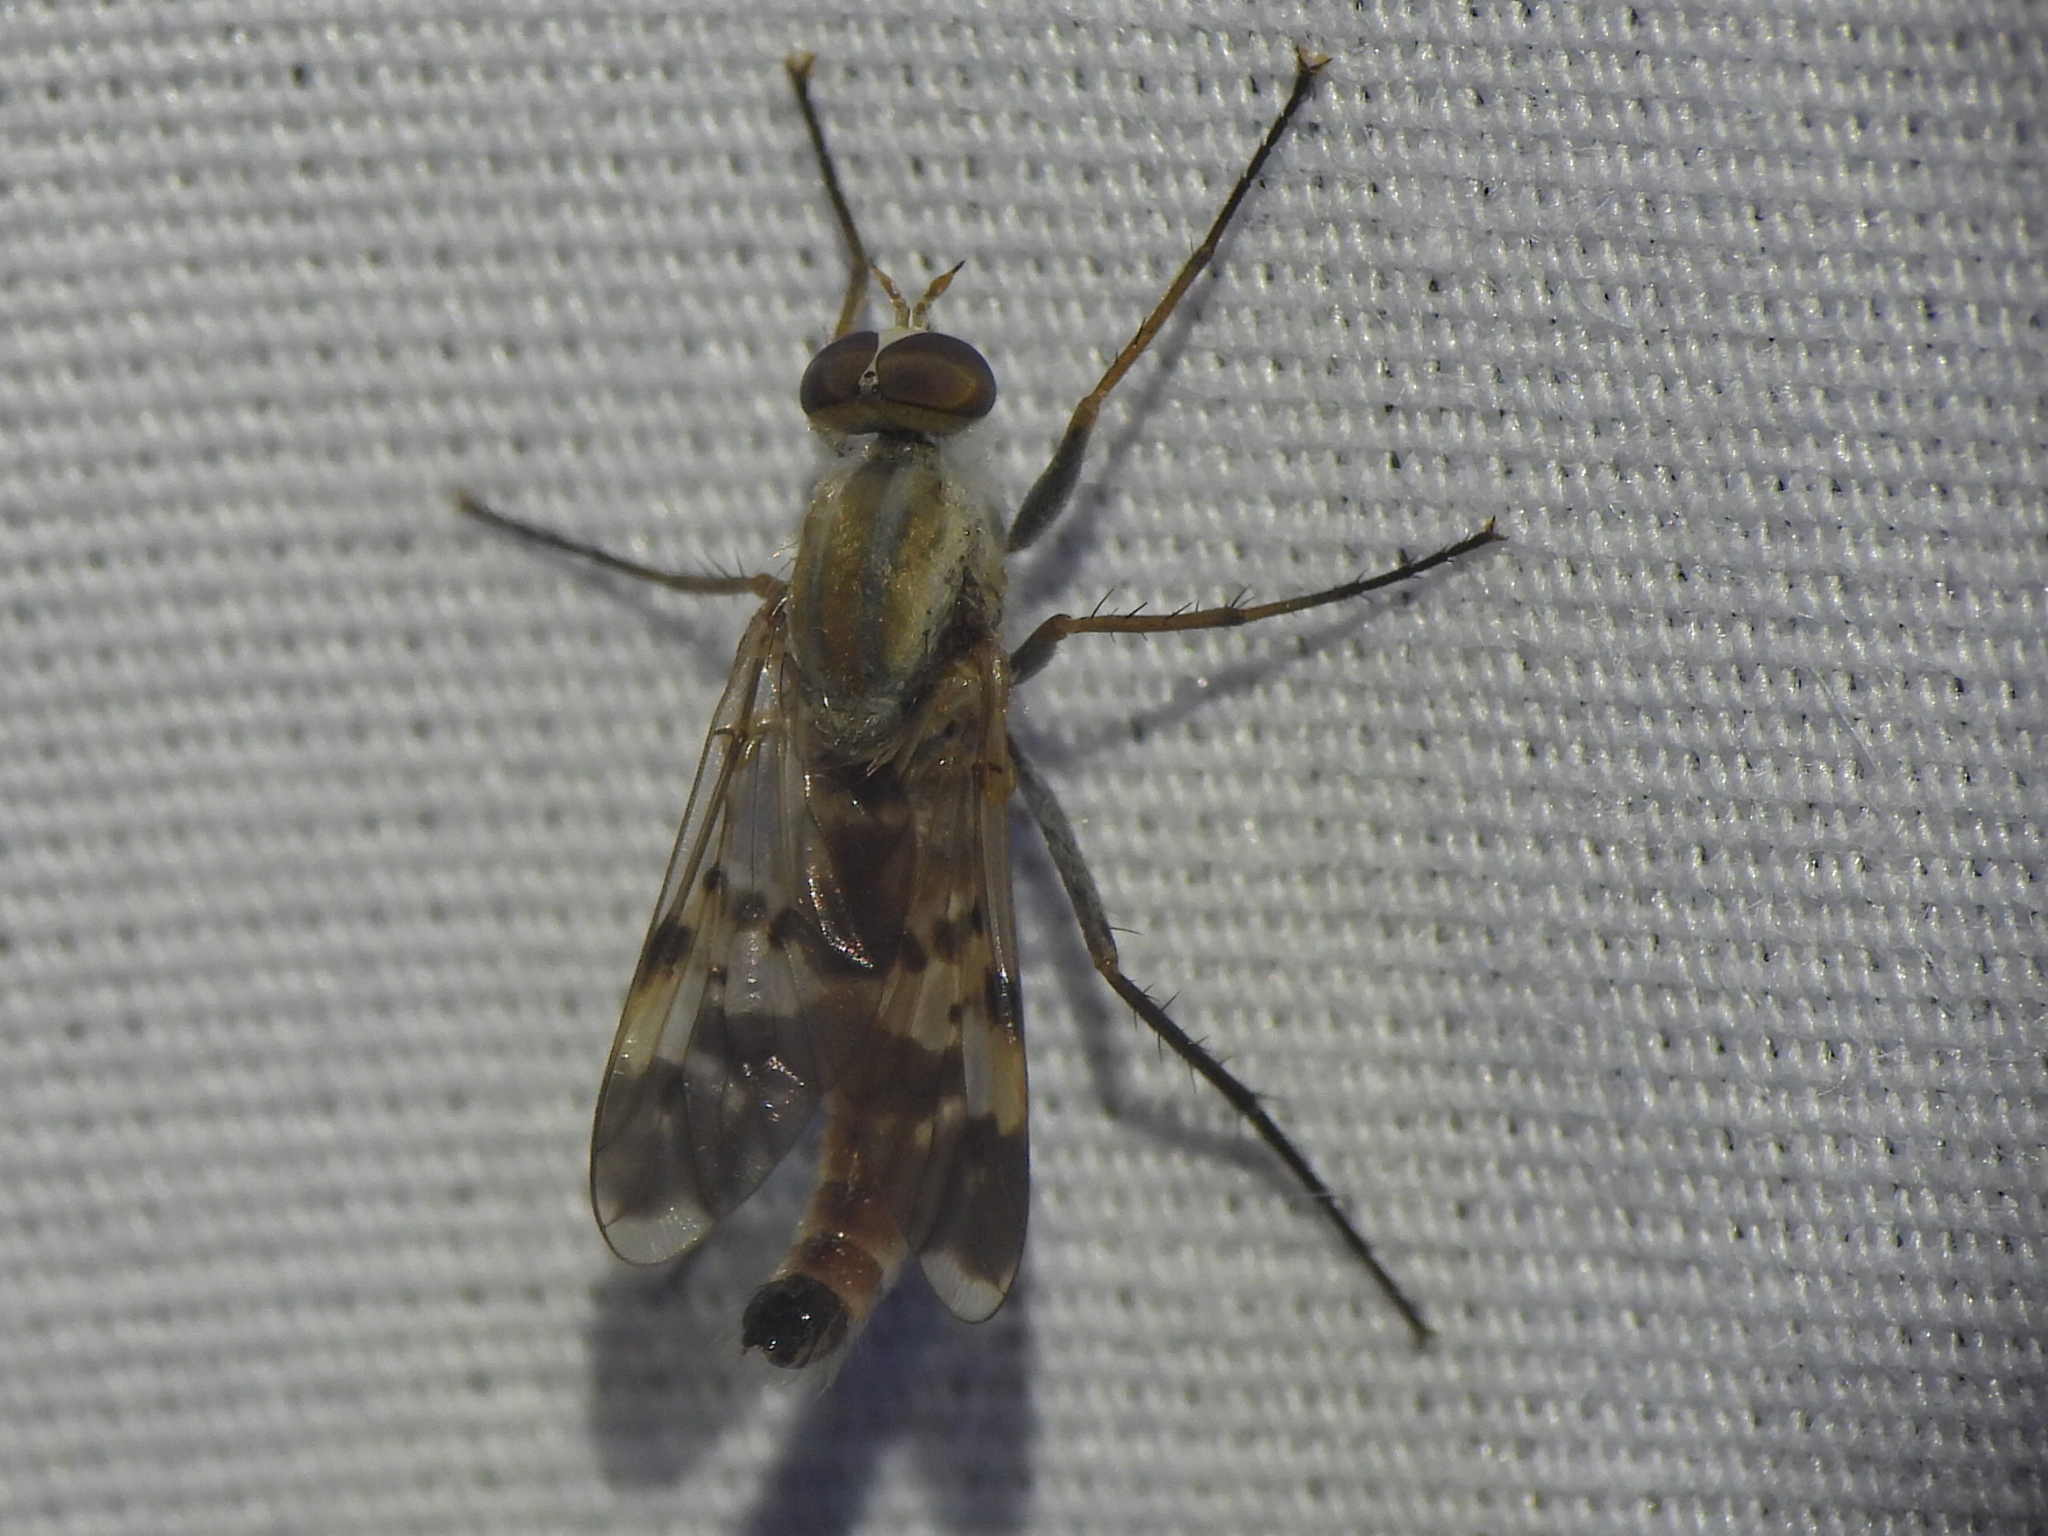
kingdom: Animalia
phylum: Arthropoda
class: Insecta
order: Diptera
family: Therevidae
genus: Hoplosathe
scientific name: Hoplosathe brevistyla
